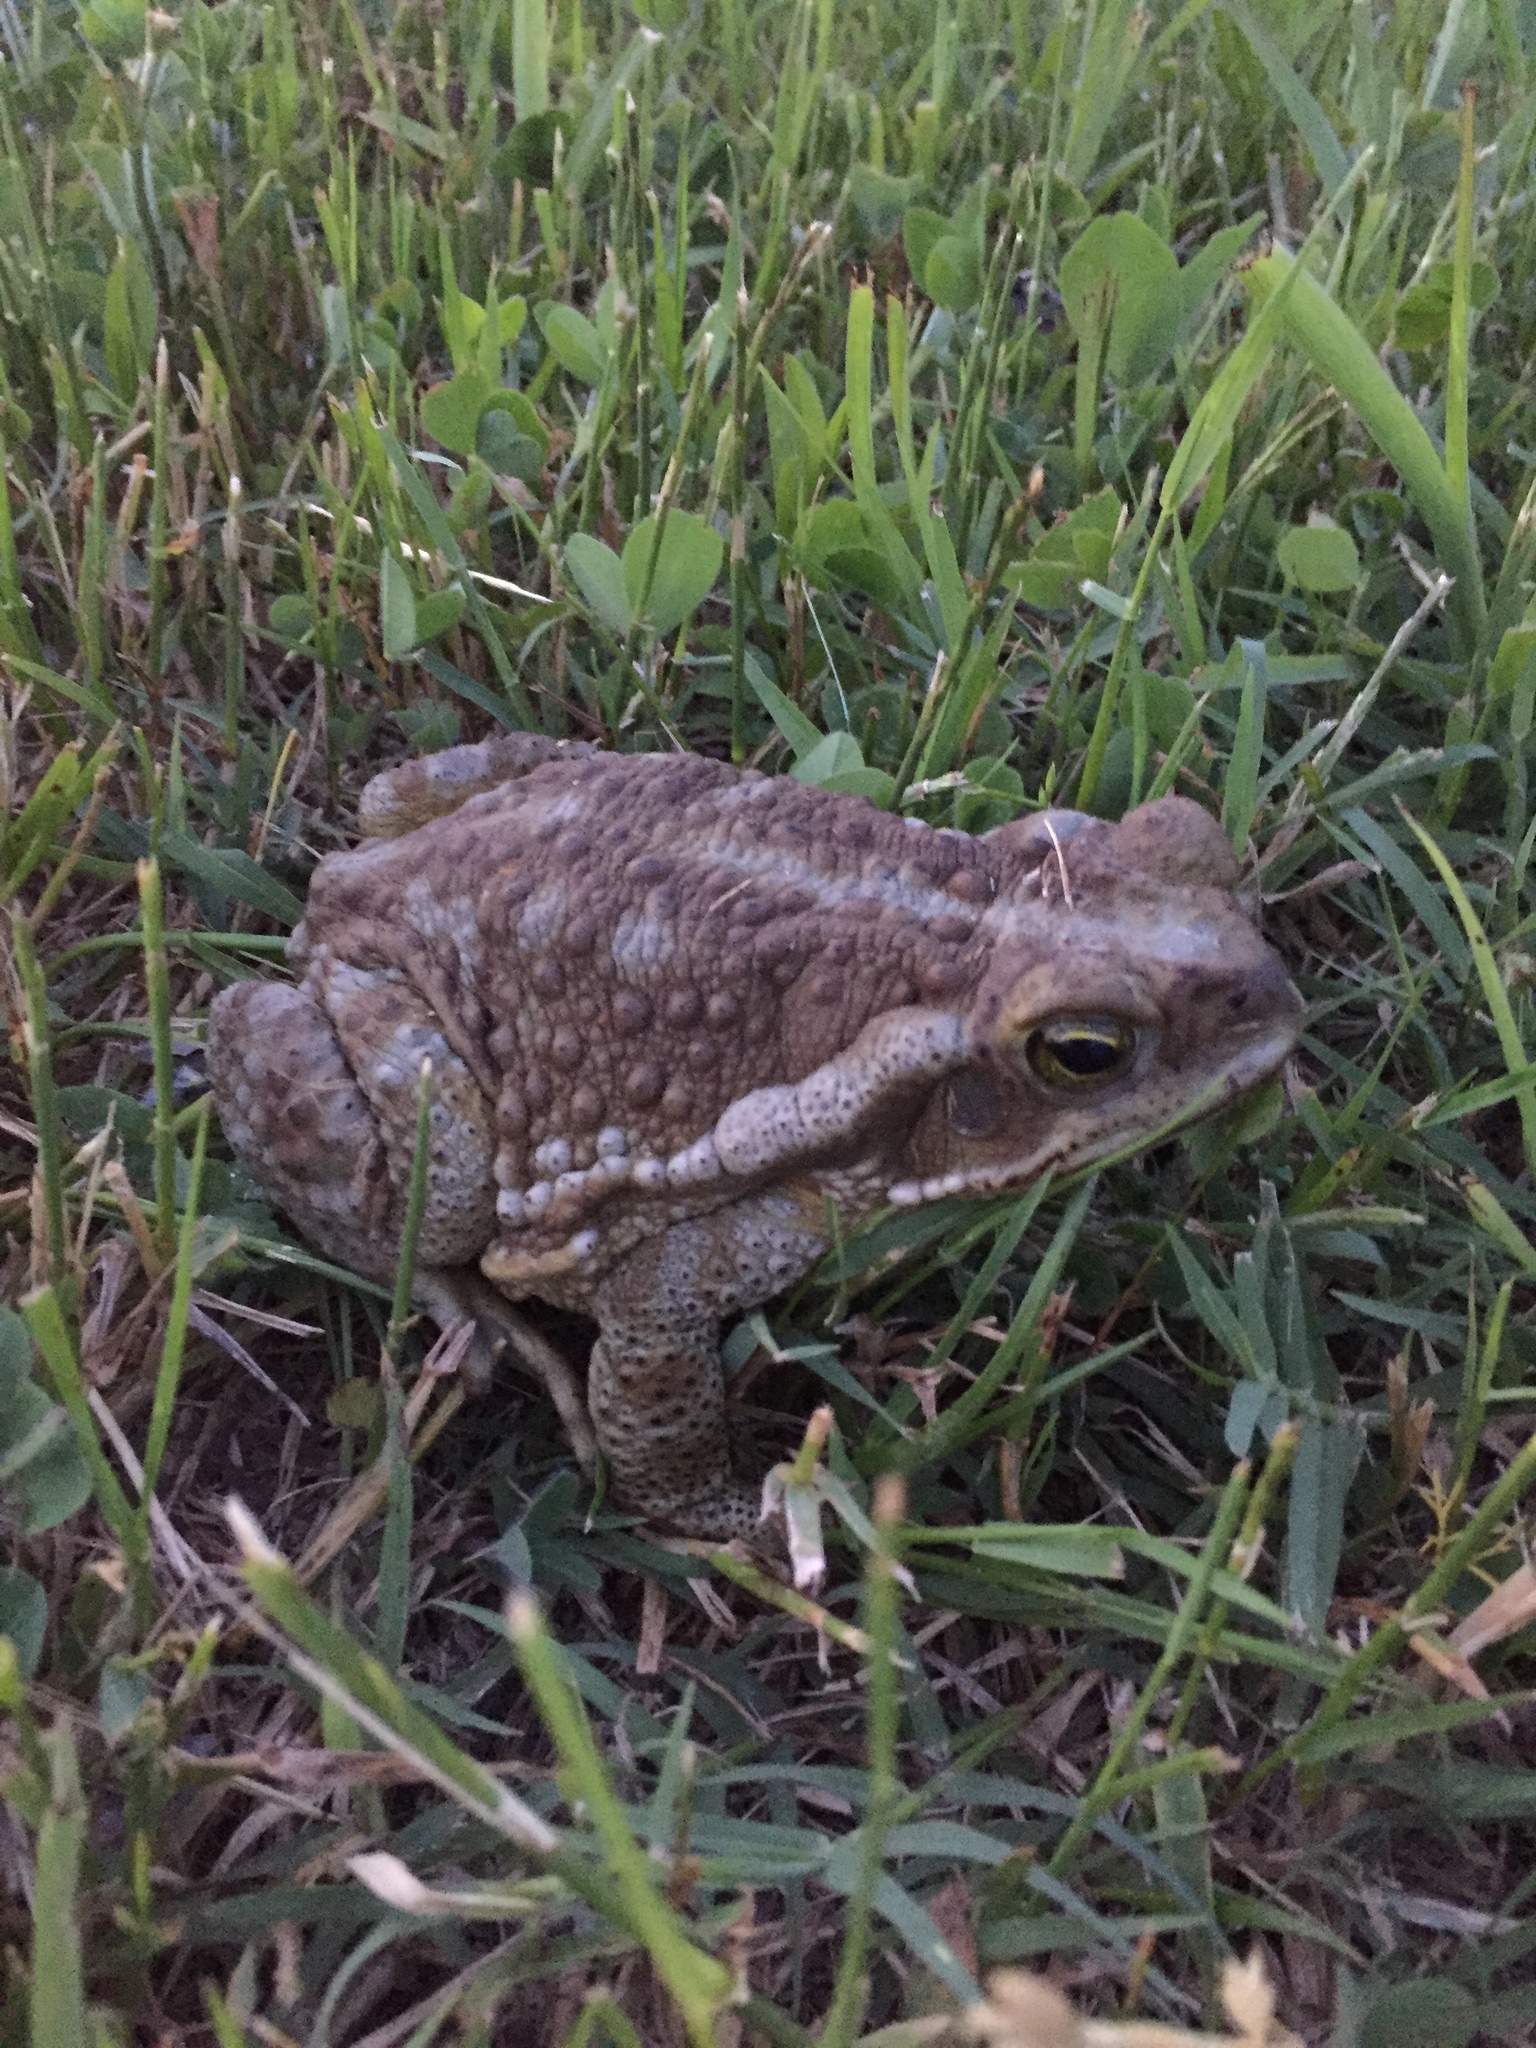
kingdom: Animalia
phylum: Chordata
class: Amphibia
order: Anura
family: Bufonidae
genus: Rhinella
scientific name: Rhinella arenarum
